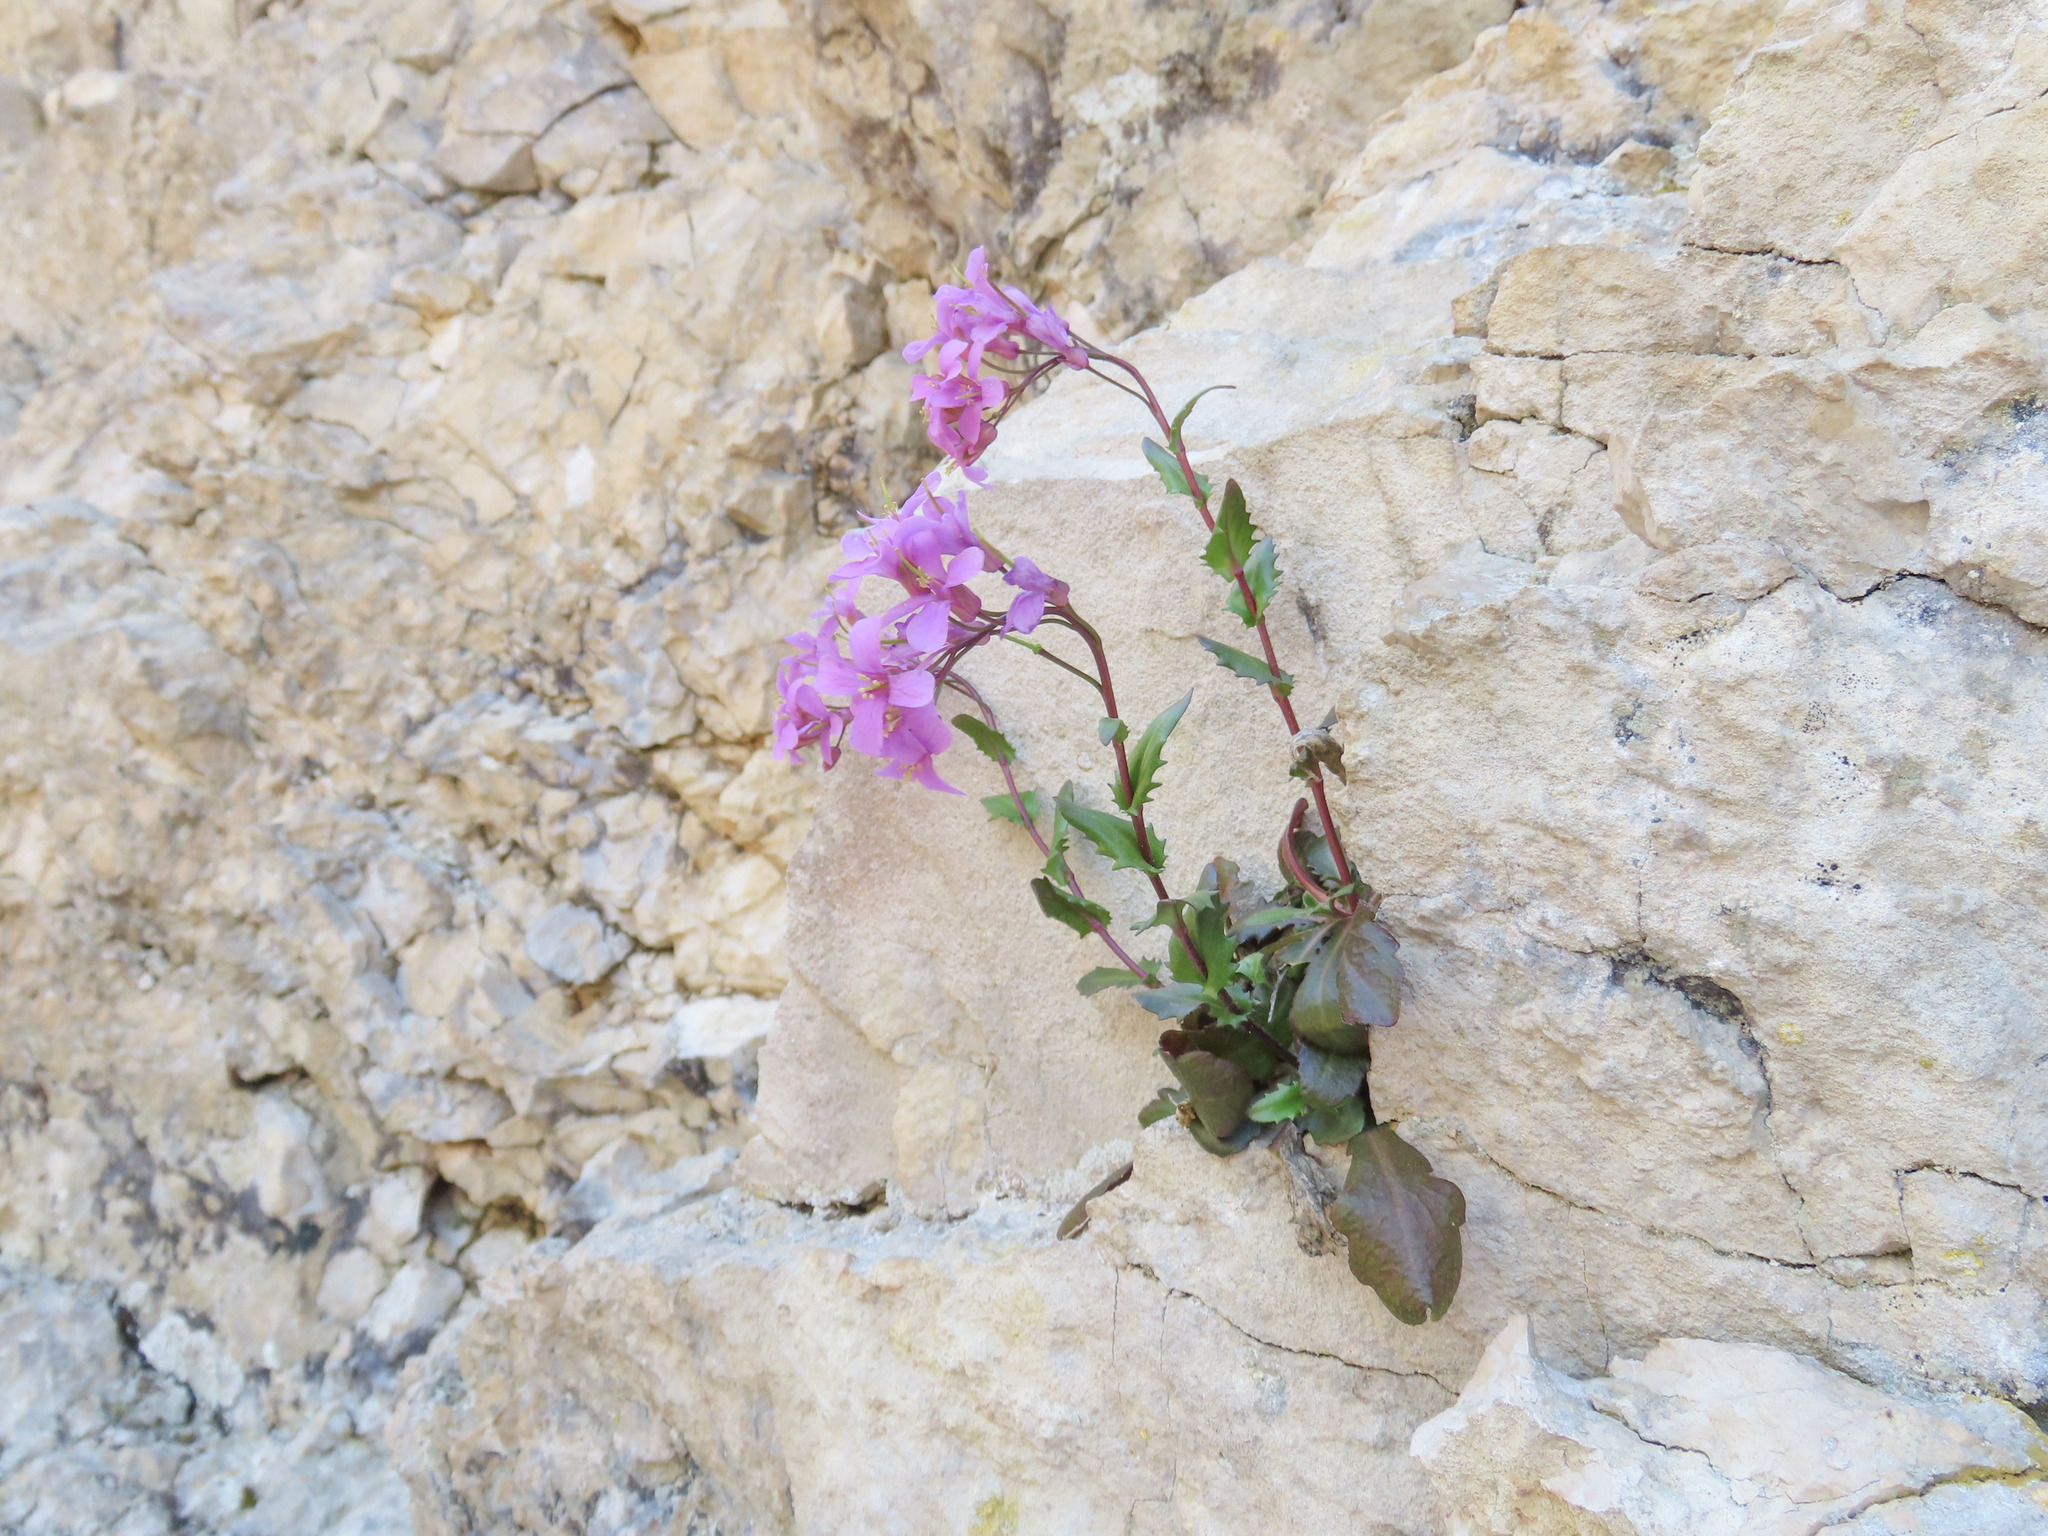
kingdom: Plantae
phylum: Tracheophyta
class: Magnoliopsida
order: Brassicales
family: Brassicaceae
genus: Arabis
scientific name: Arabis collina
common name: Rosy cress
